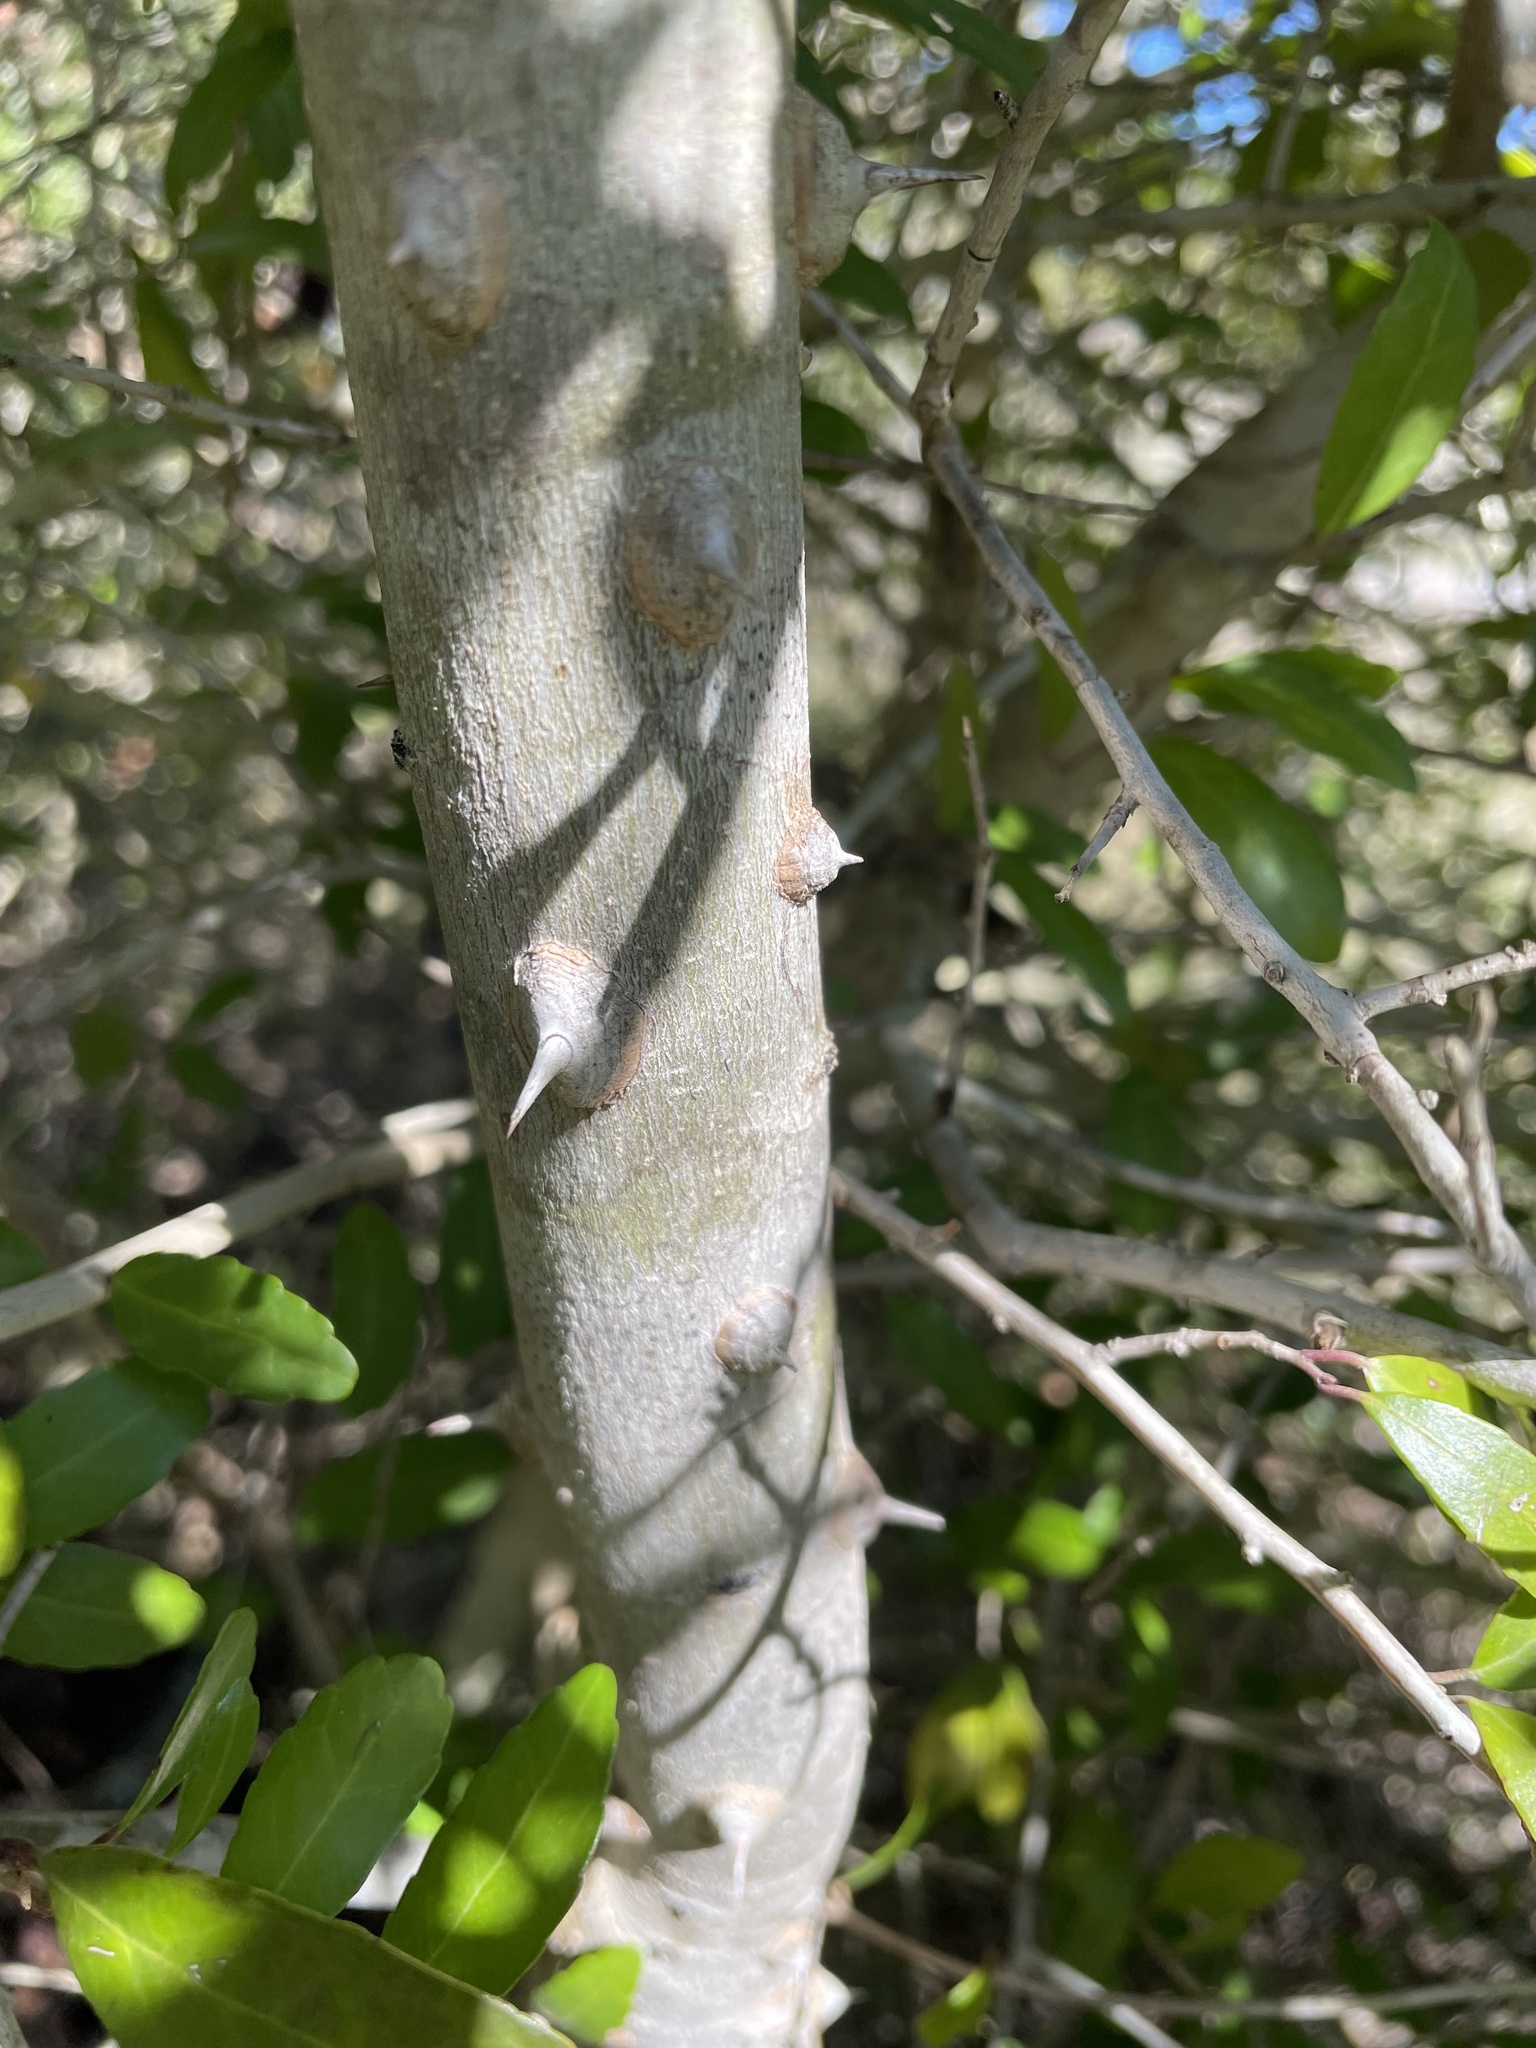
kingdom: Plantae
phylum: Tracheophyta
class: Magnoliopsida
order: Sapindales
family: Rutaceae
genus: Zanthoxylum
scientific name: Zanthoxylum clava-herculis
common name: Hercules'-club
